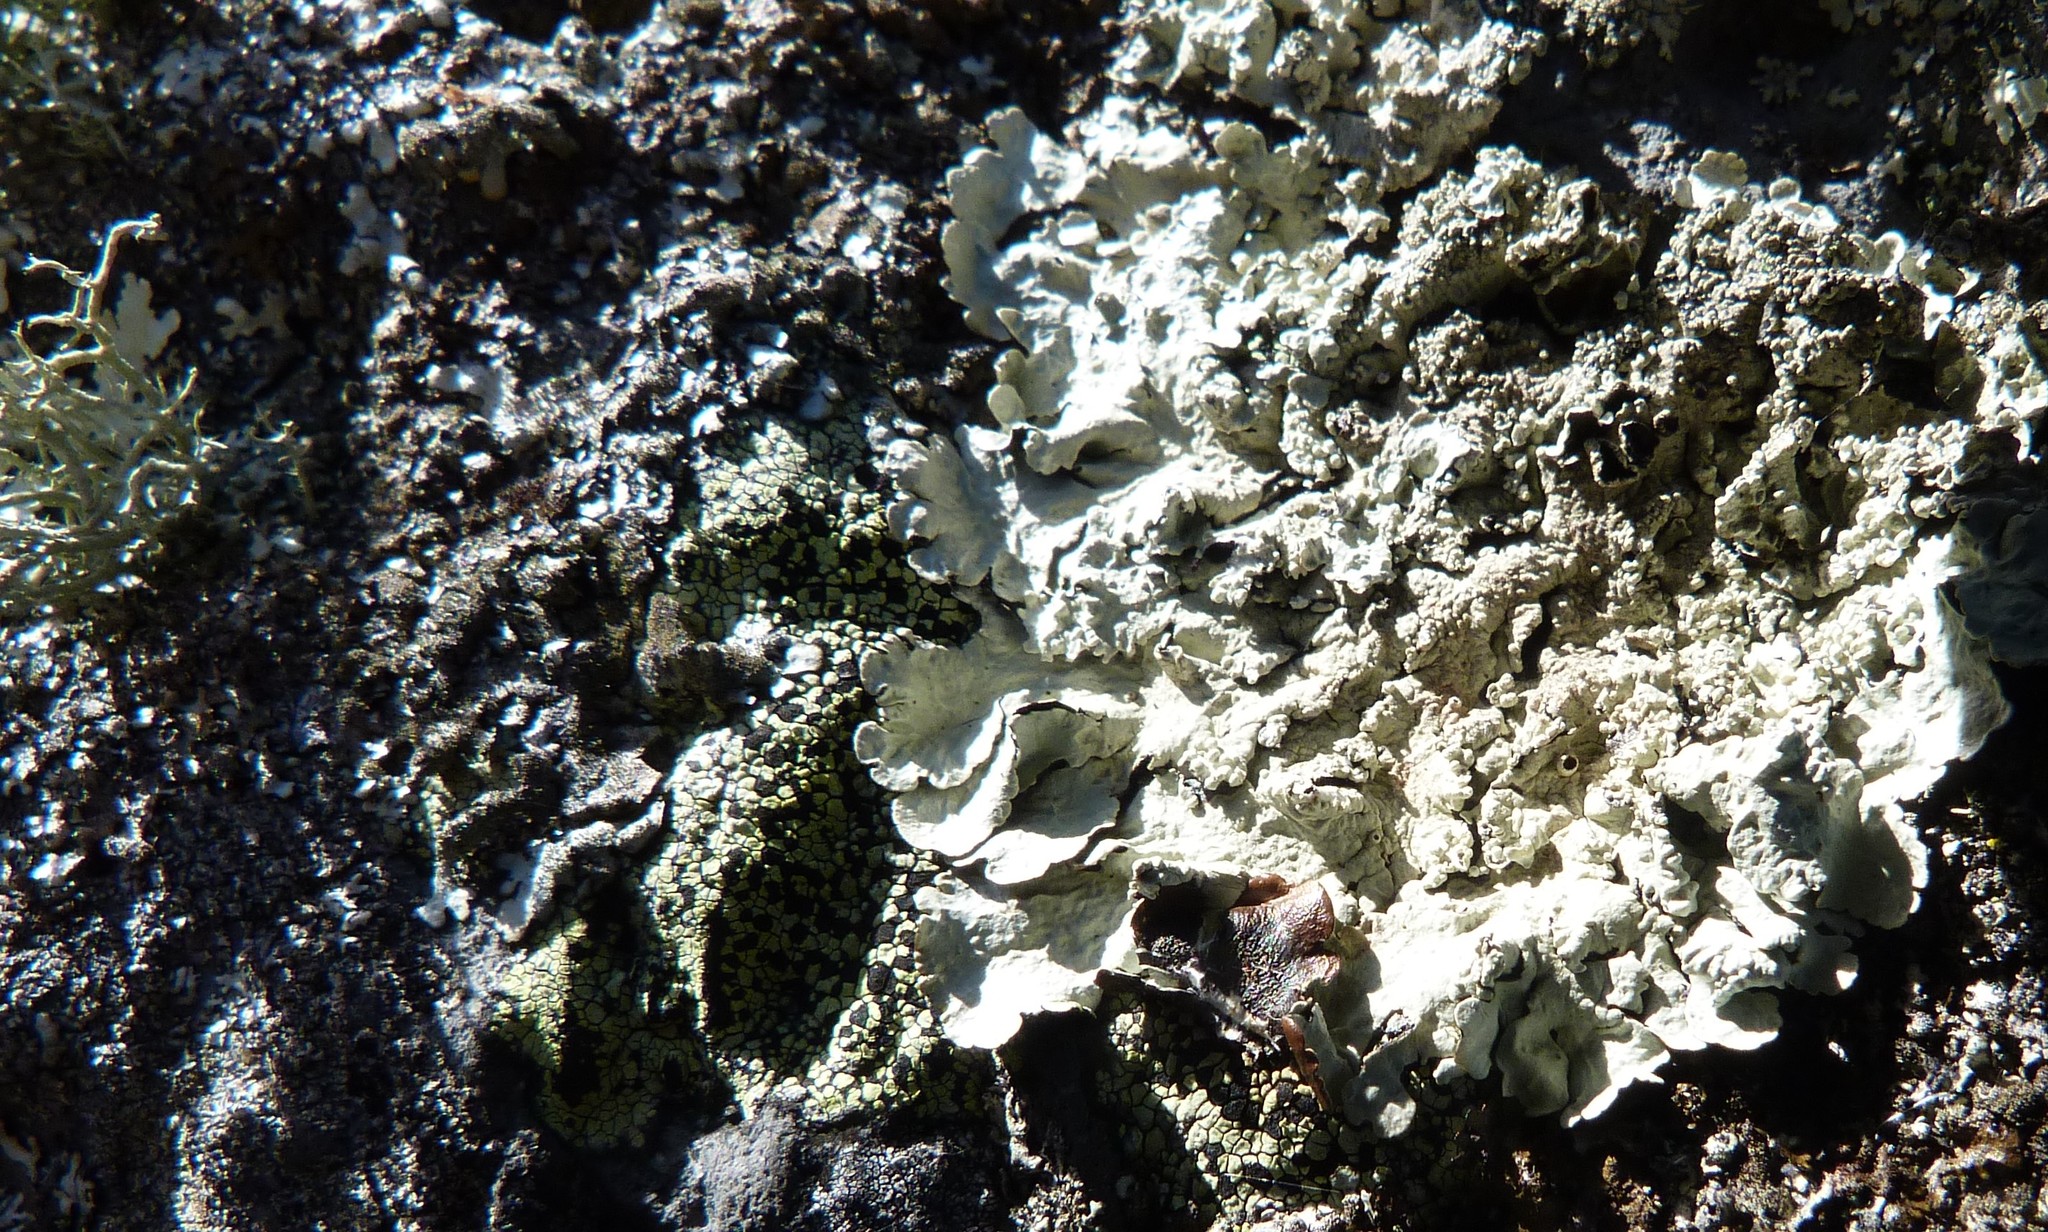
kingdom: Fungi
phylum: Ascomycota
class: Lecanoromycetes
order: Lecanorales
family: Parmeliaceae
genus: Flavoparmelia
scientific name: Flavoparmelia haysomii
